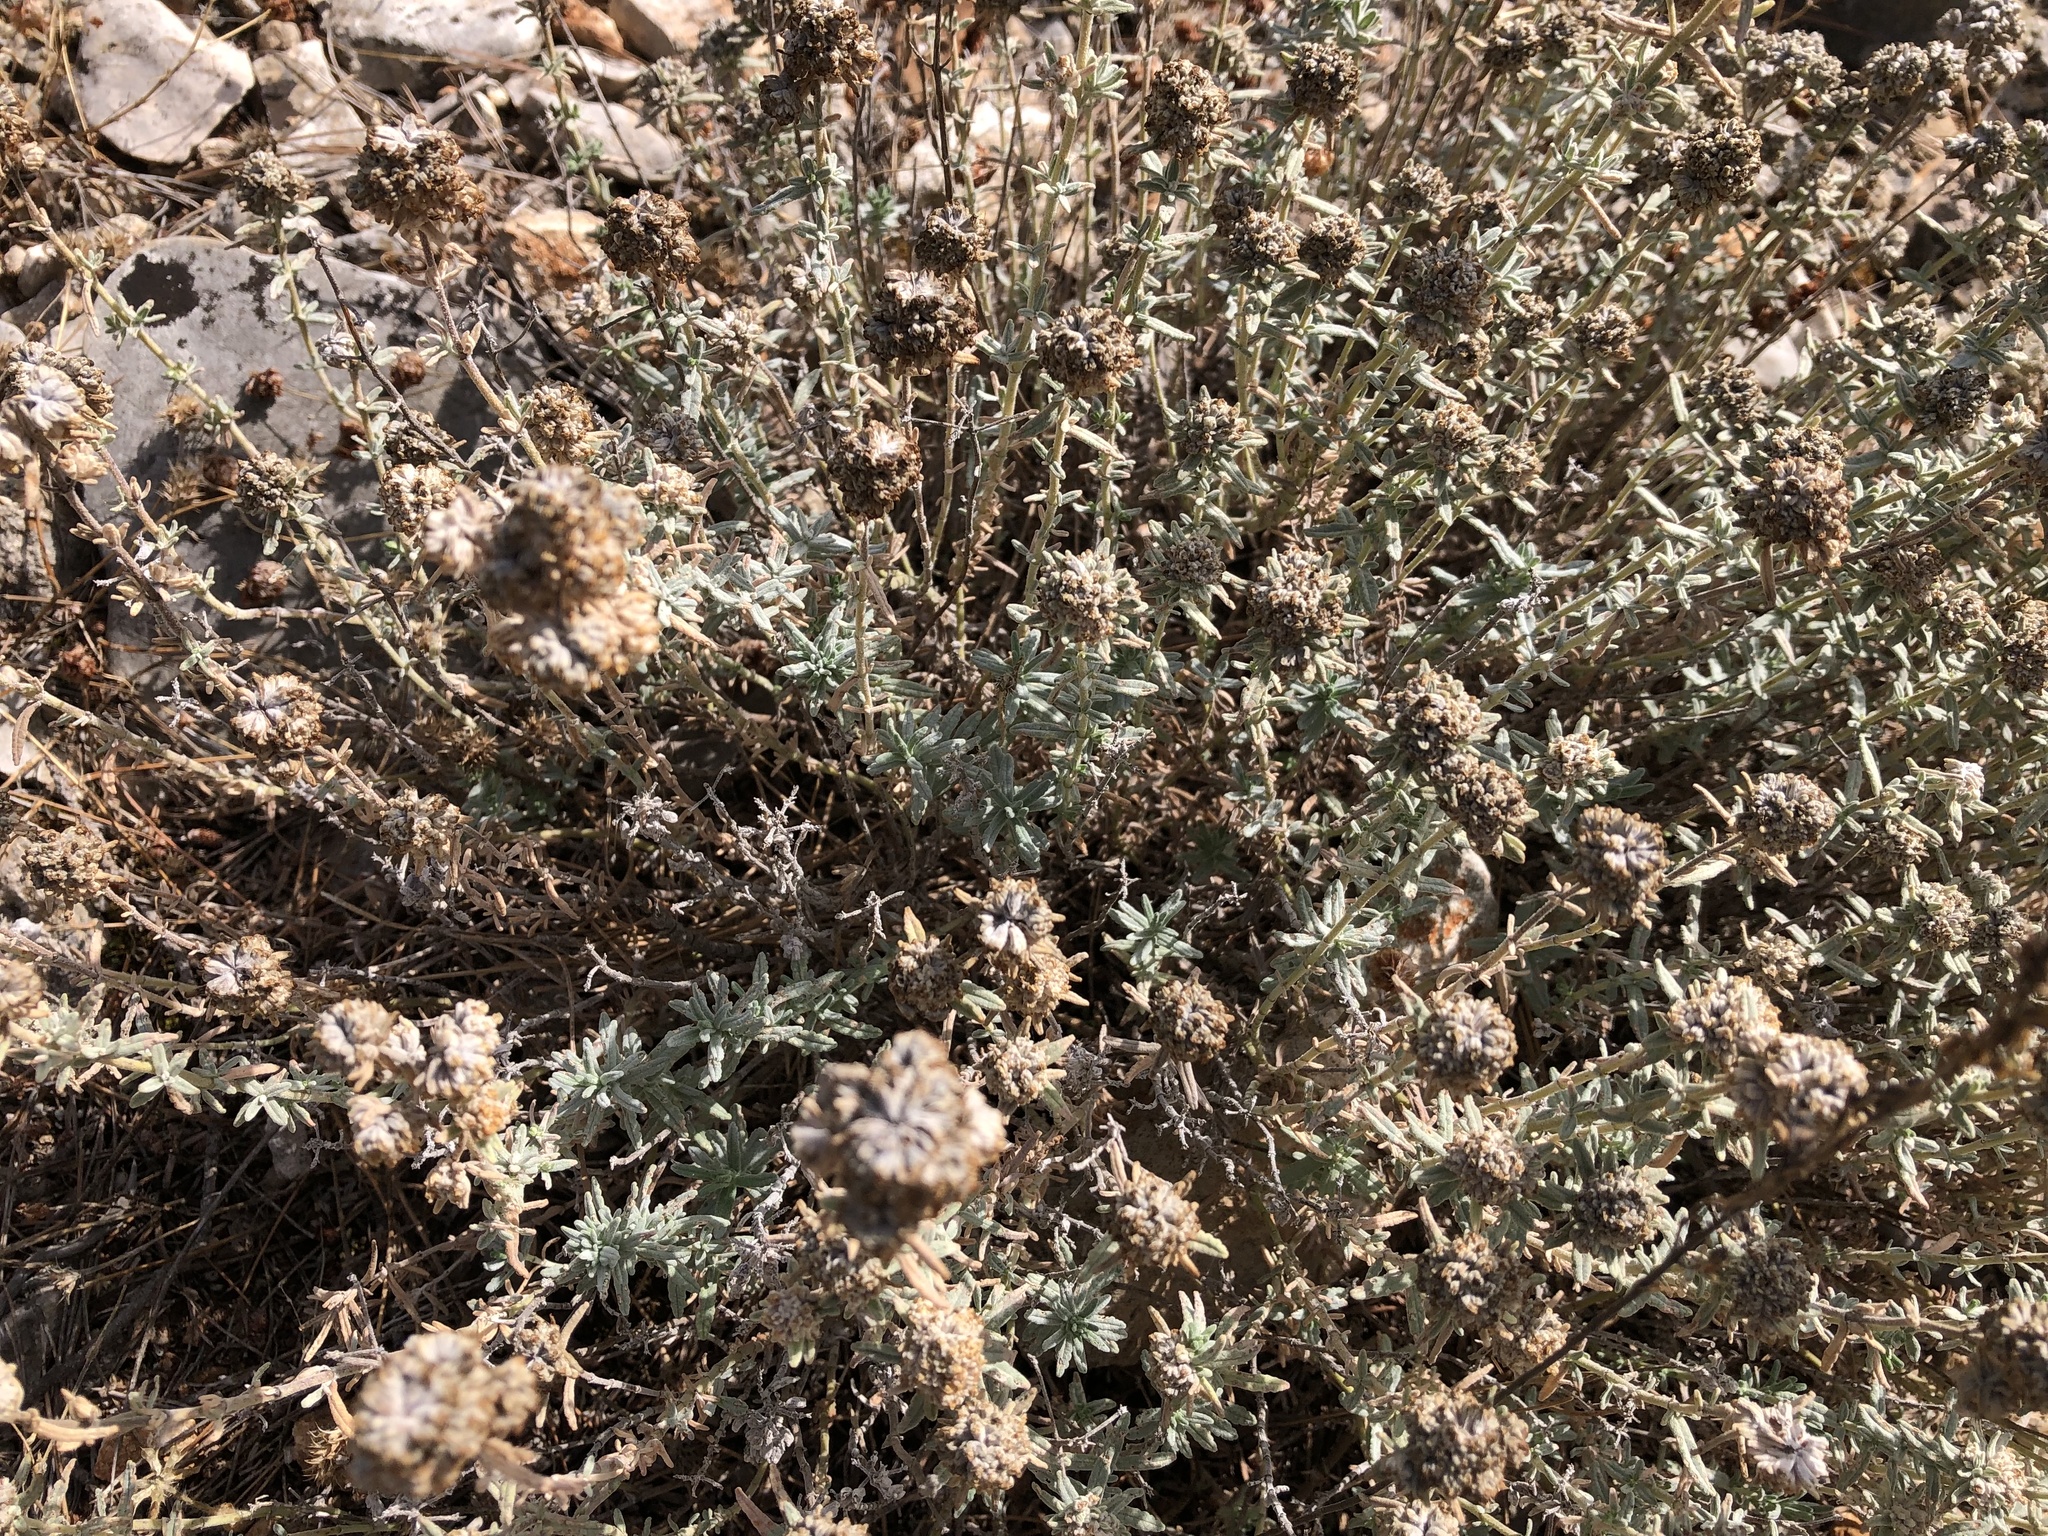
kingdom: Plantae
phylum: Tracheophyta
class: Magnoliopsida
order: Lamiales
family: Lamiaceae
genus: Teucrium
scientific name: Teucrium capitatum
